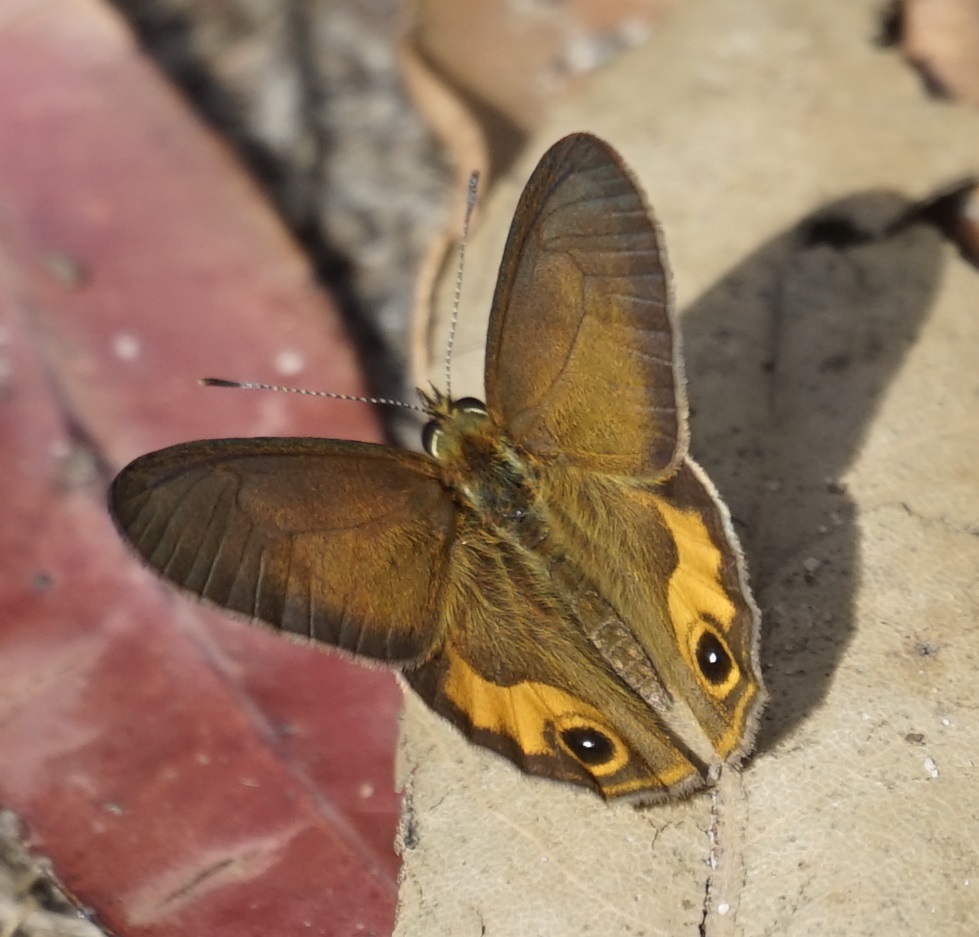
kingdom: Animalia
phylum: Arthropoda
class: Insecta
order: Lepidoptera
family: Nymphalidae
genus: Hypocysta
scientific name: Hypocysta metirius
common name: Brown ringlet
